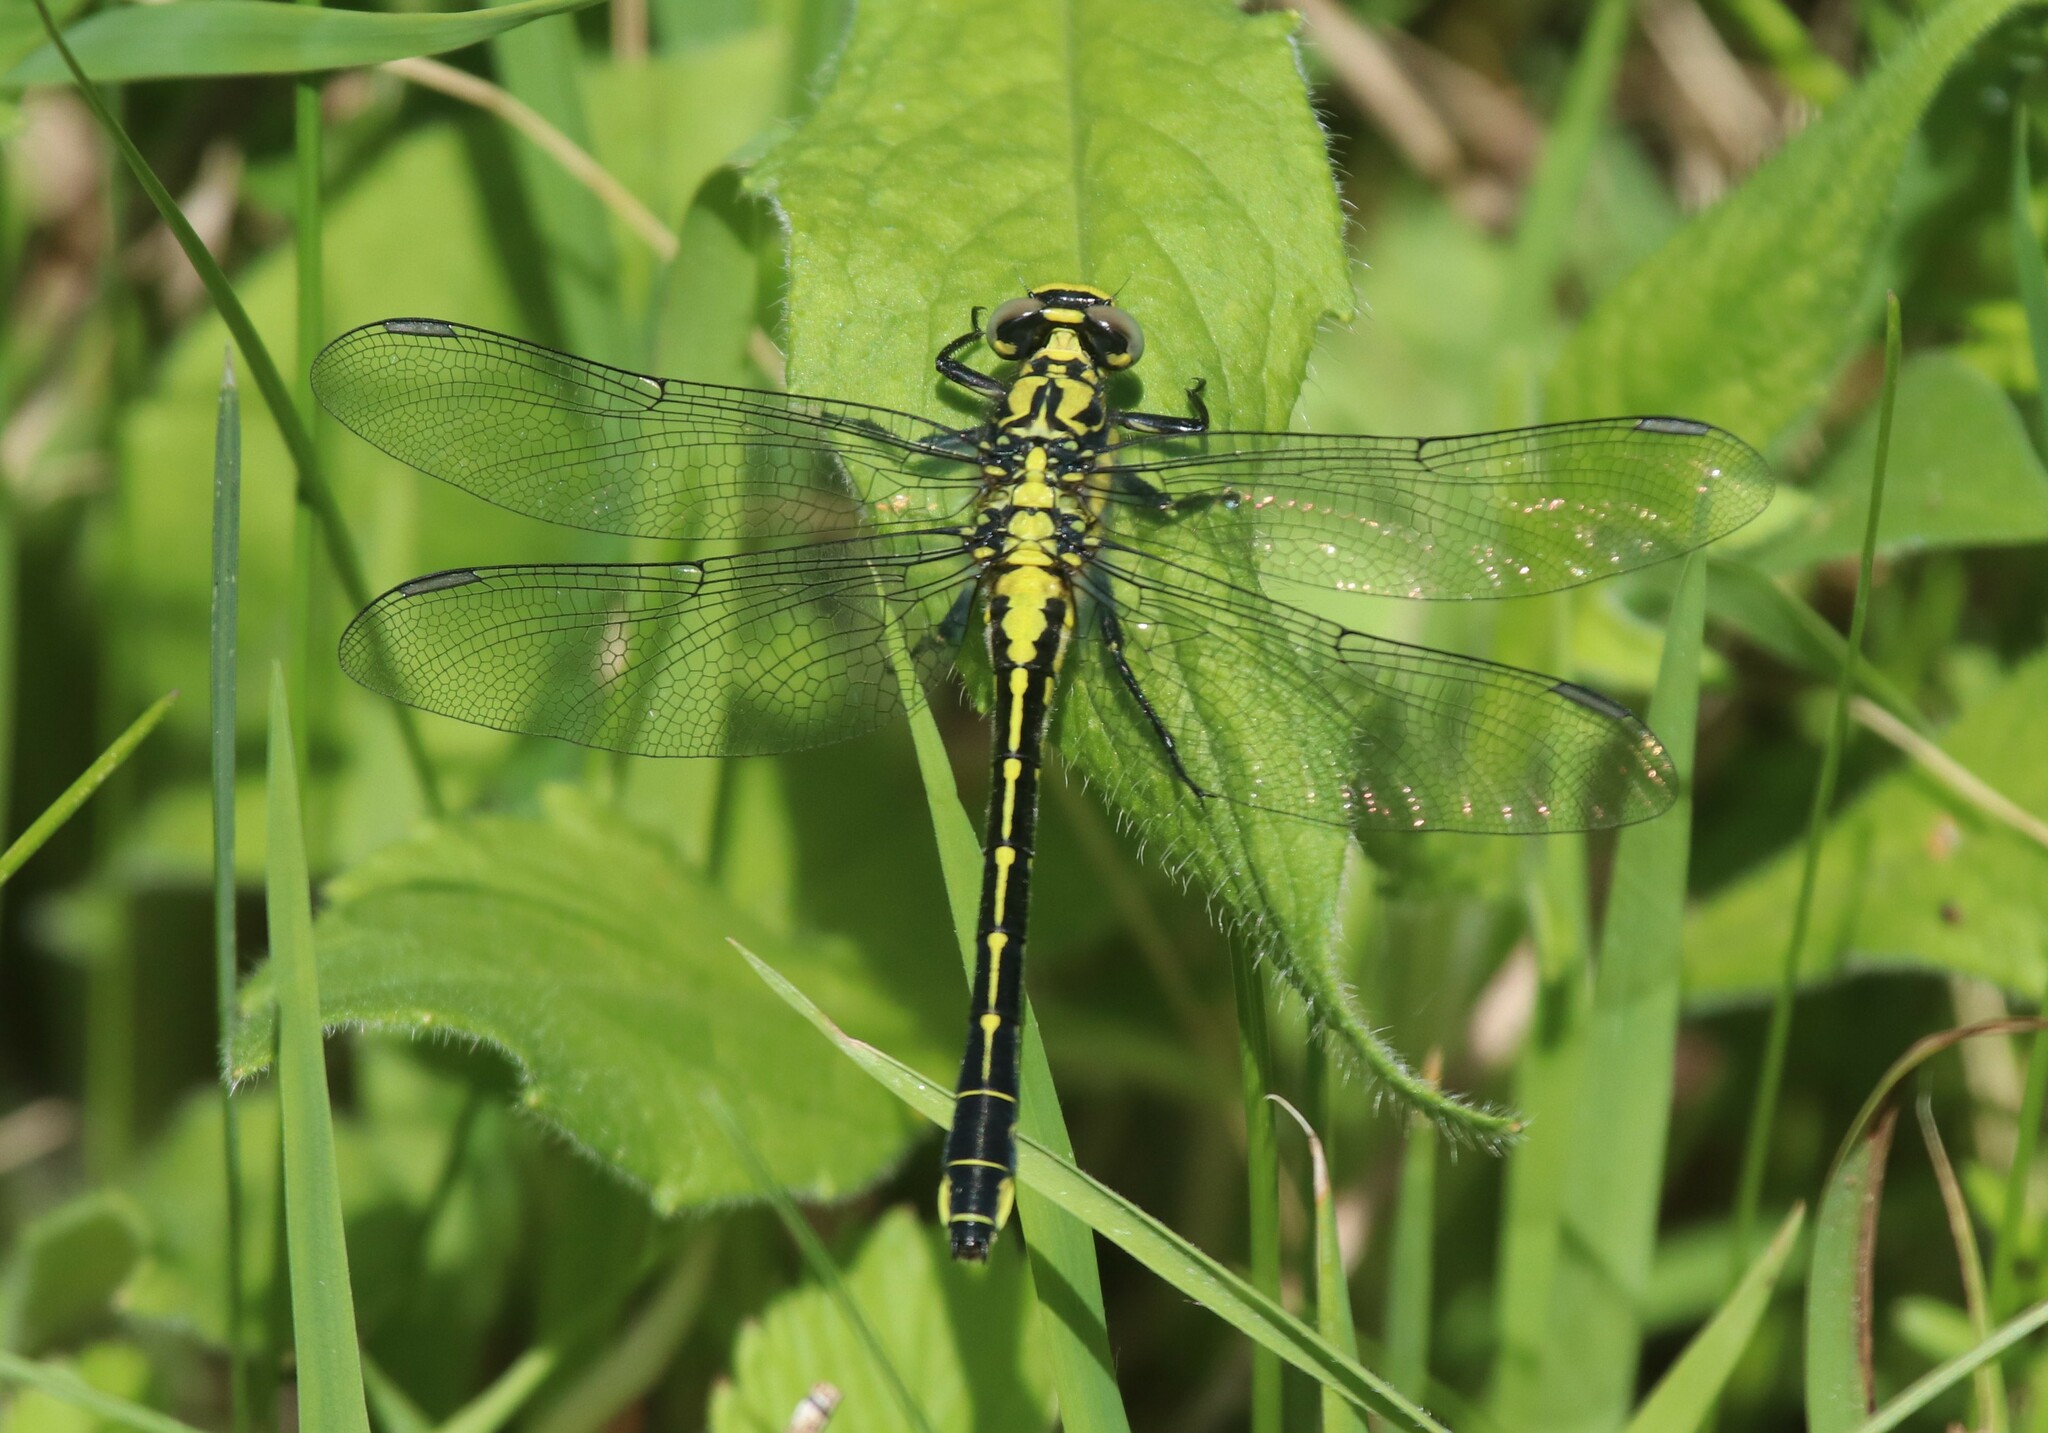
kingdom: Animalia
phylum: Arthropoda
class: Insecta
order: Odonata
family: Gomphidae
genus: Gomphus
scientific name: Gomphus vulgatissimus
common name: Club-tailed dragonfly
